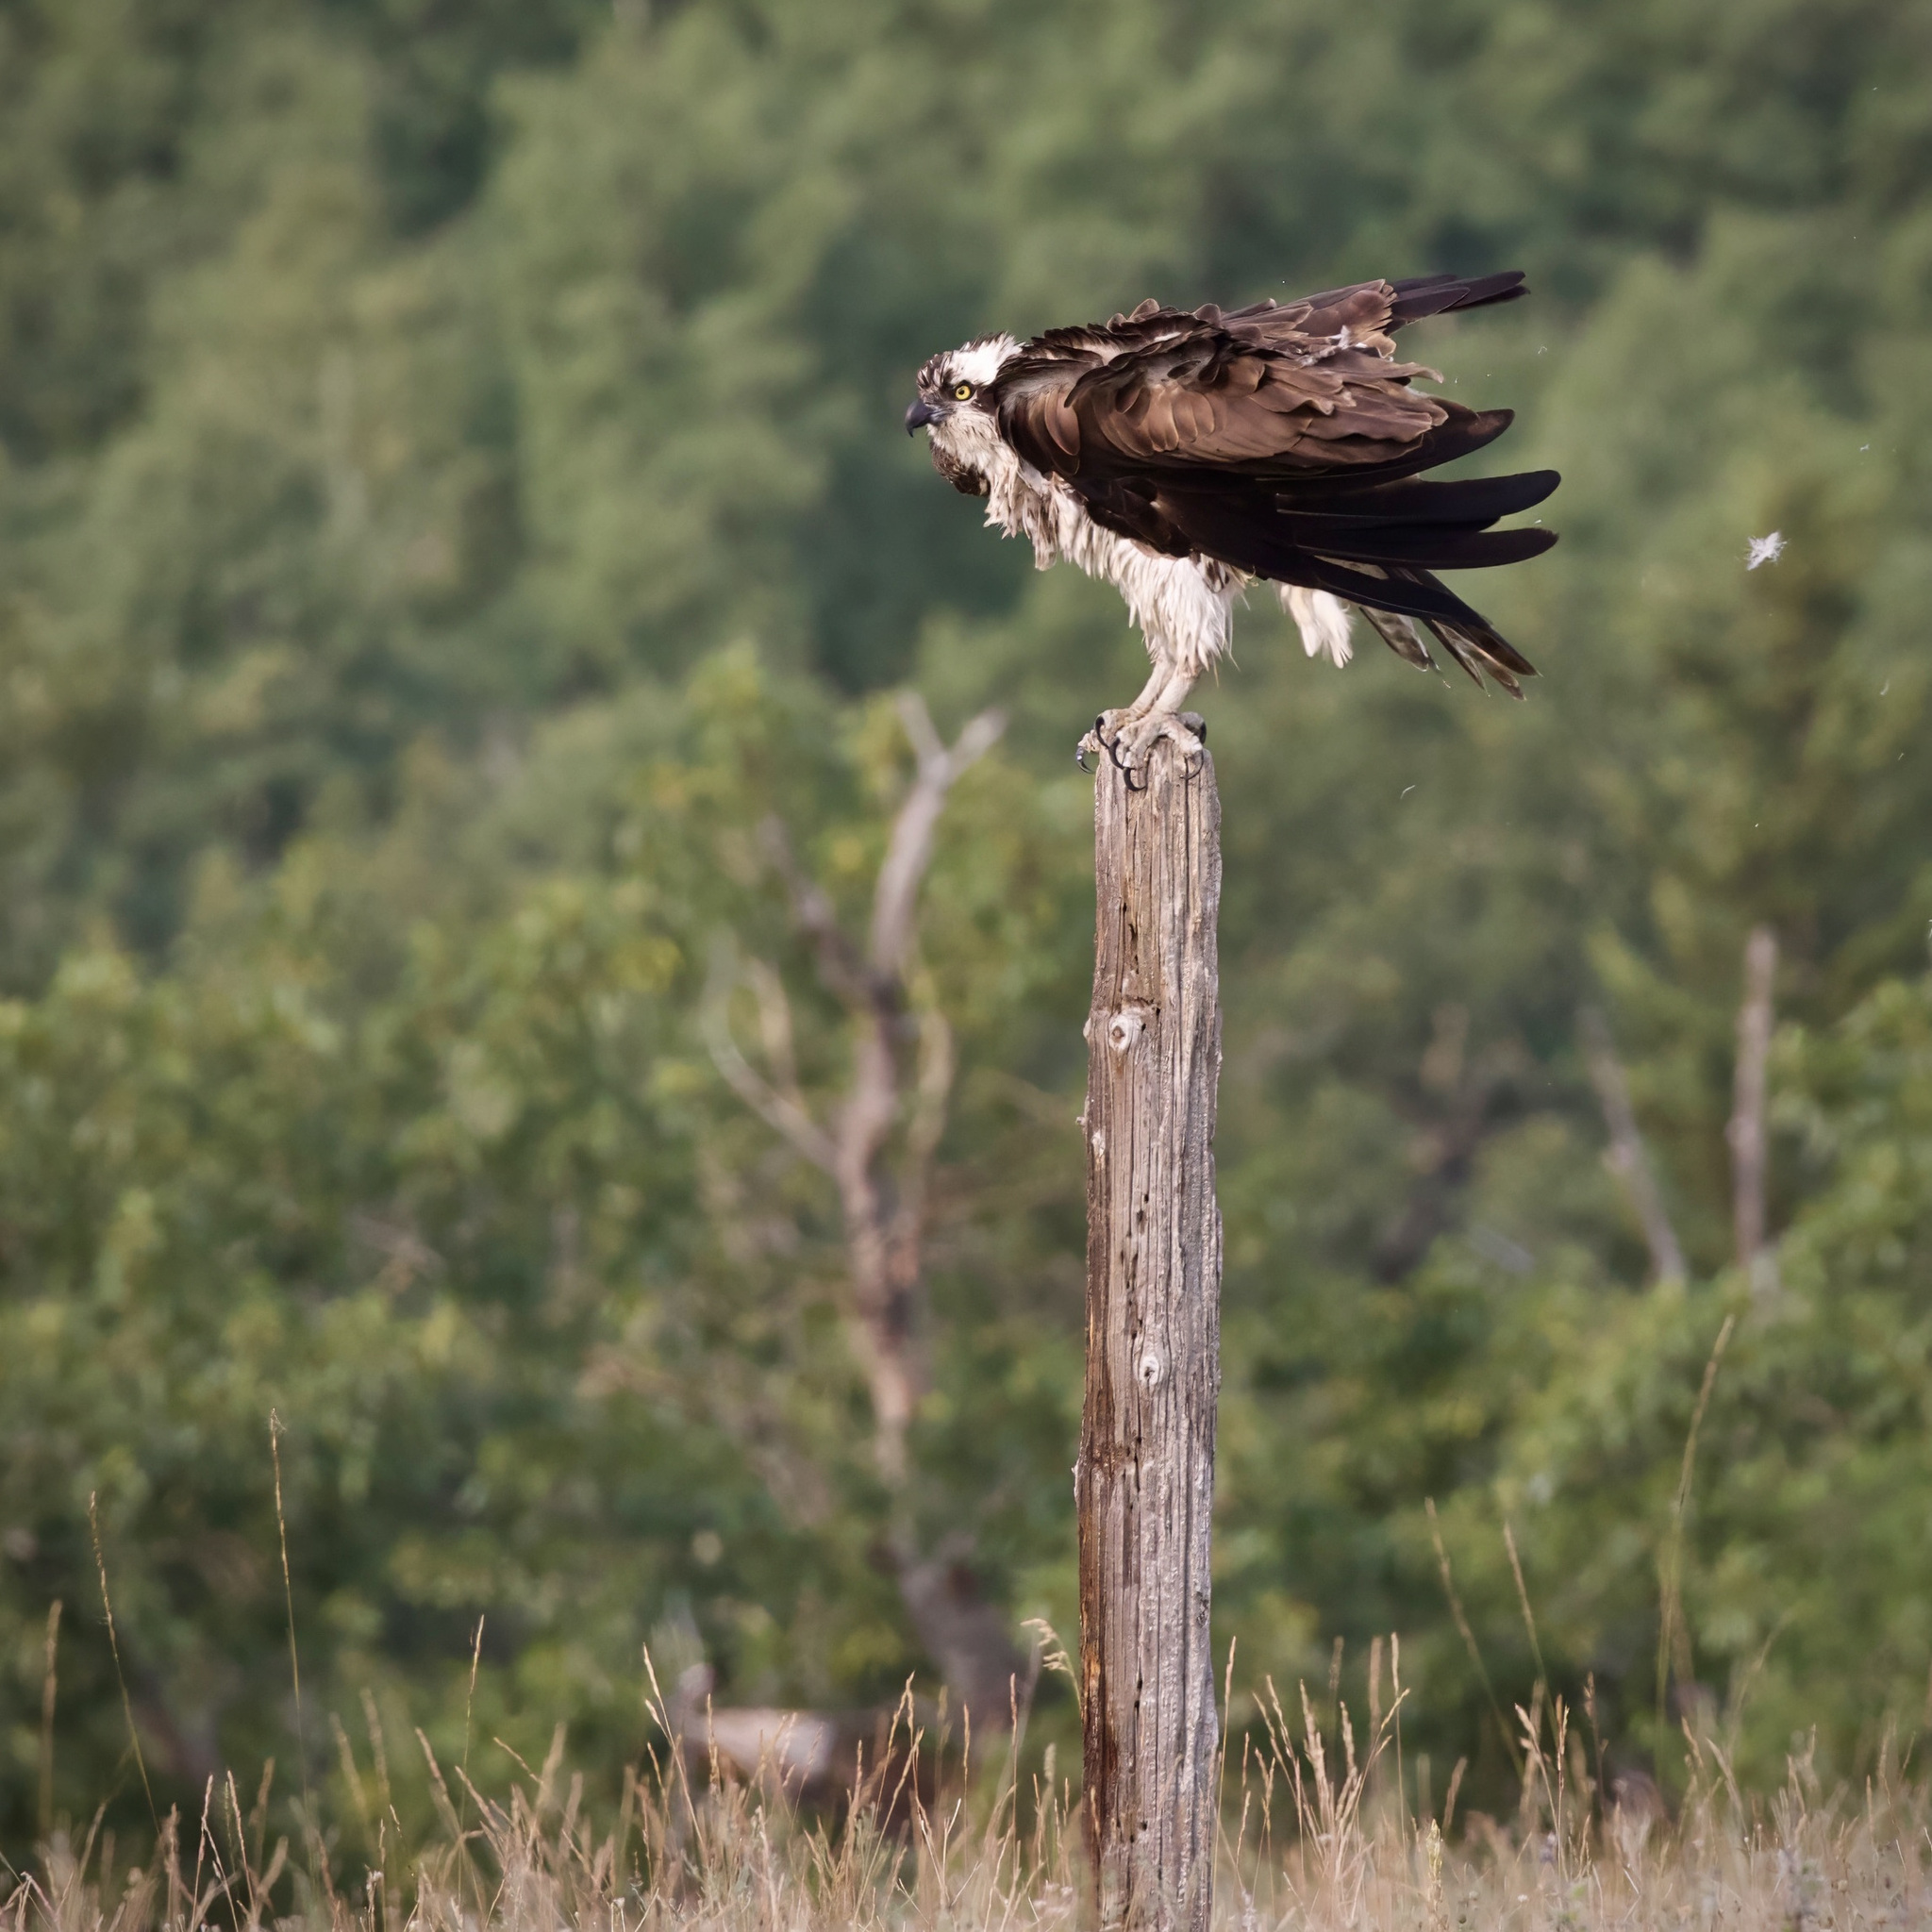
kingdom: Animalia
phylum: Chordata
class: Aves
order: Accipitriformes
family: Pandionidae
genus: Pandion
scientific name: Pandion haliaetus
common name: Osprey
